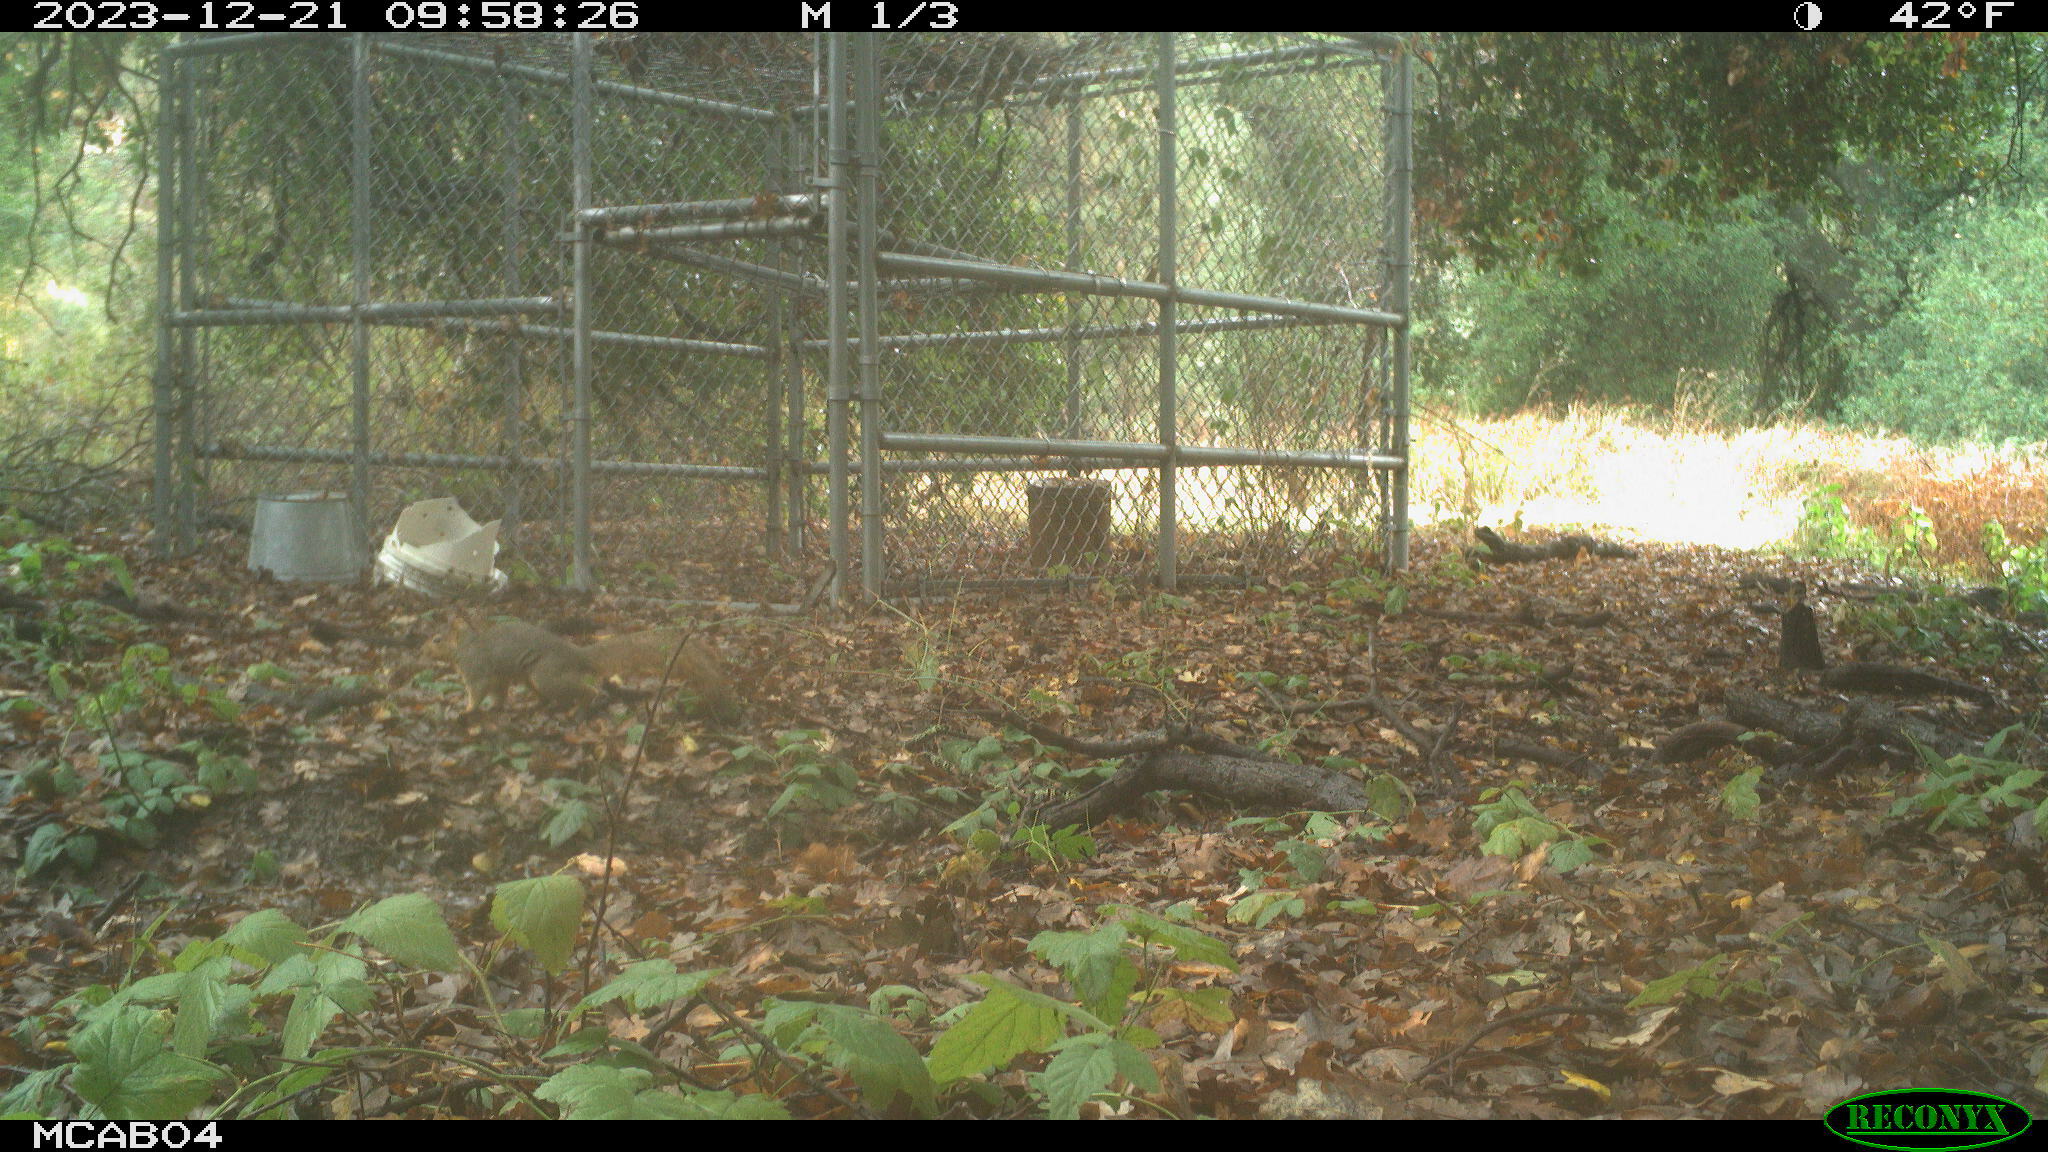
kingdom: Animalia
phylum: Chordata
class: Mammalia
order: Rodentia
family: Sciuridae
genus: Sciurus
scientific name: Sciurus niger
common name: Fox squirrel
